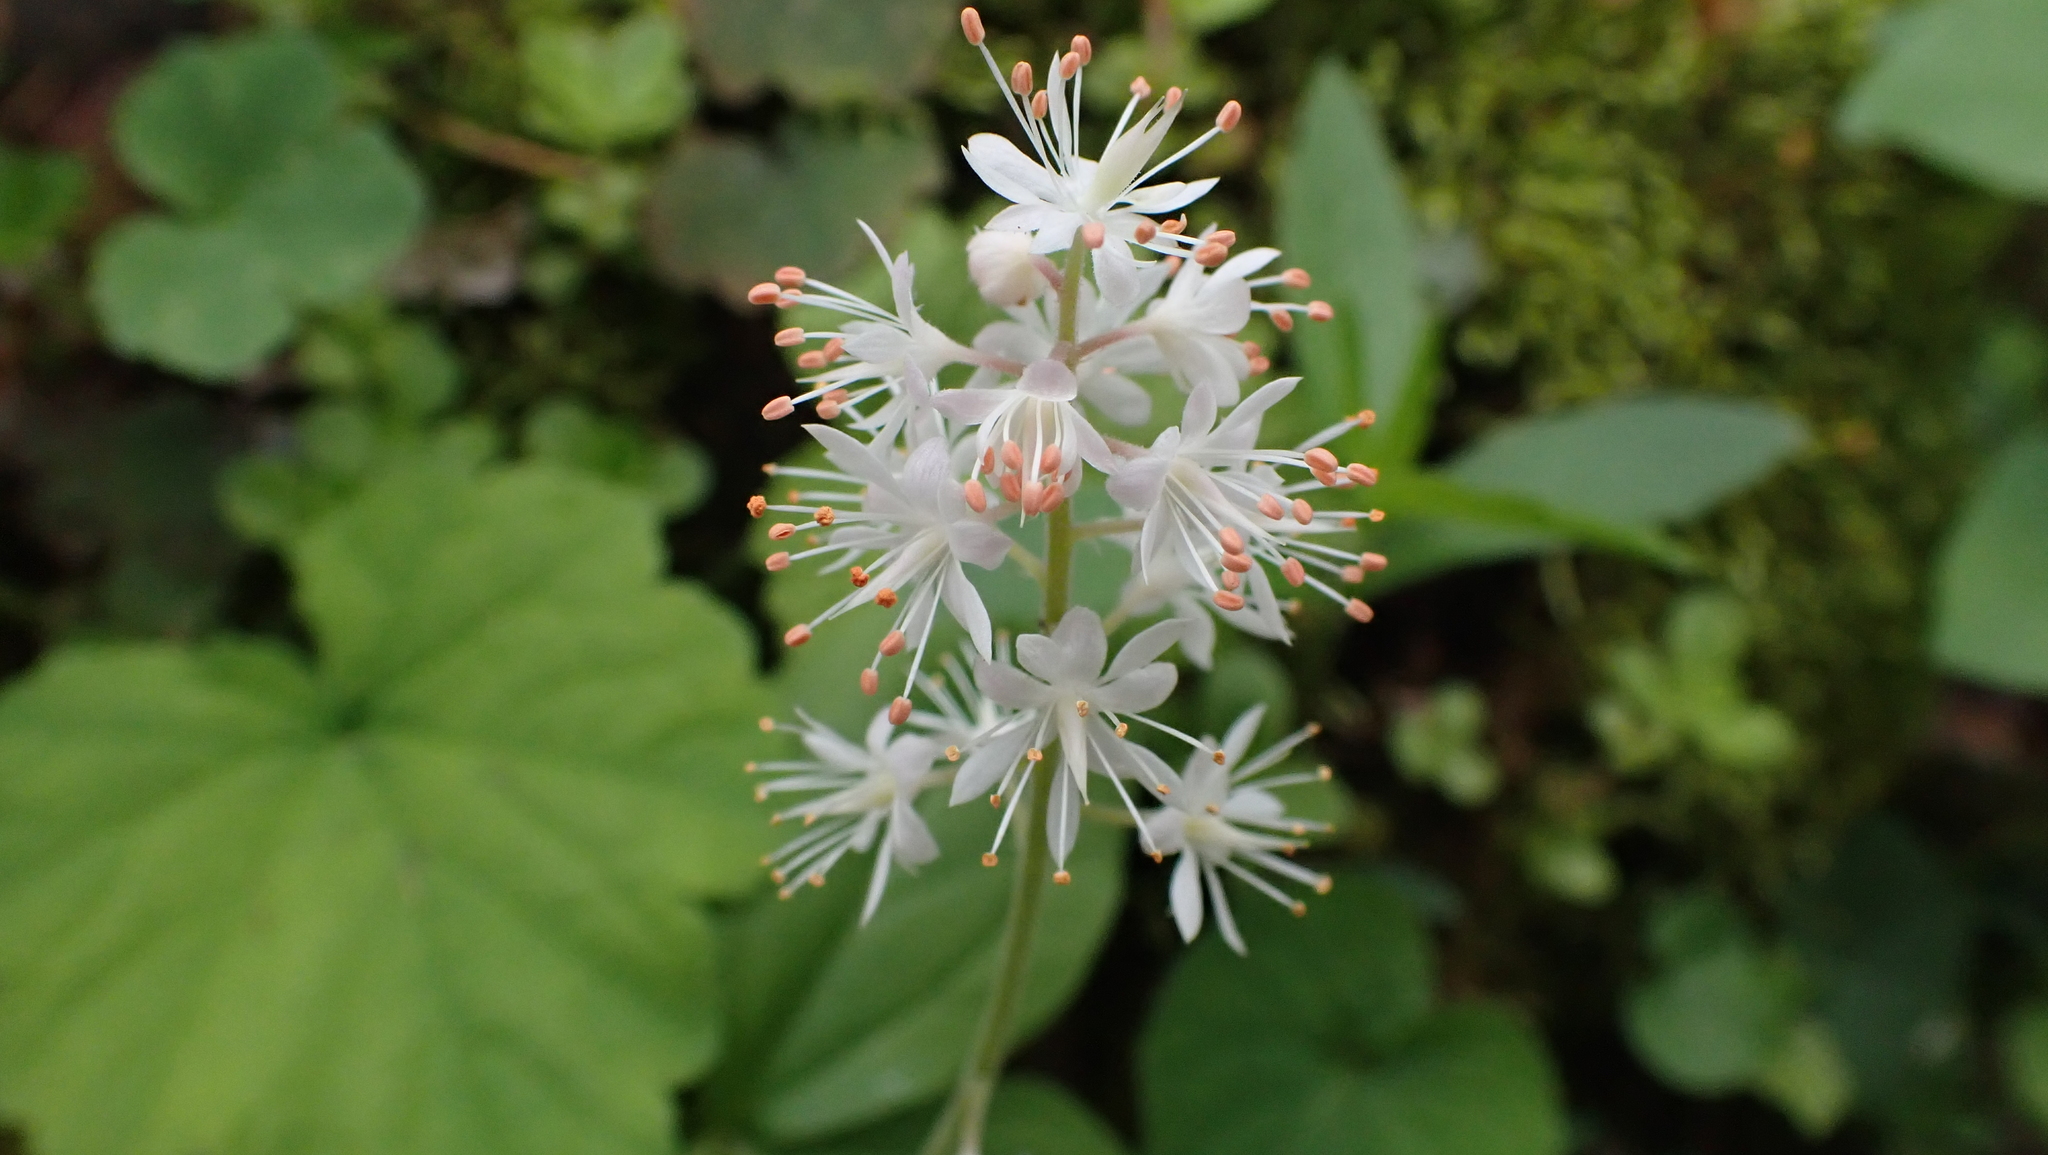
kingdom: Plantae
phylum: Tracheophyta
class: Magnoliopsida
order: Saxifragales
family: Saxifragaceae
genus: Tiarella
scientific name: Tiarella stolonifera
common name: Stoloniferous foamflower
